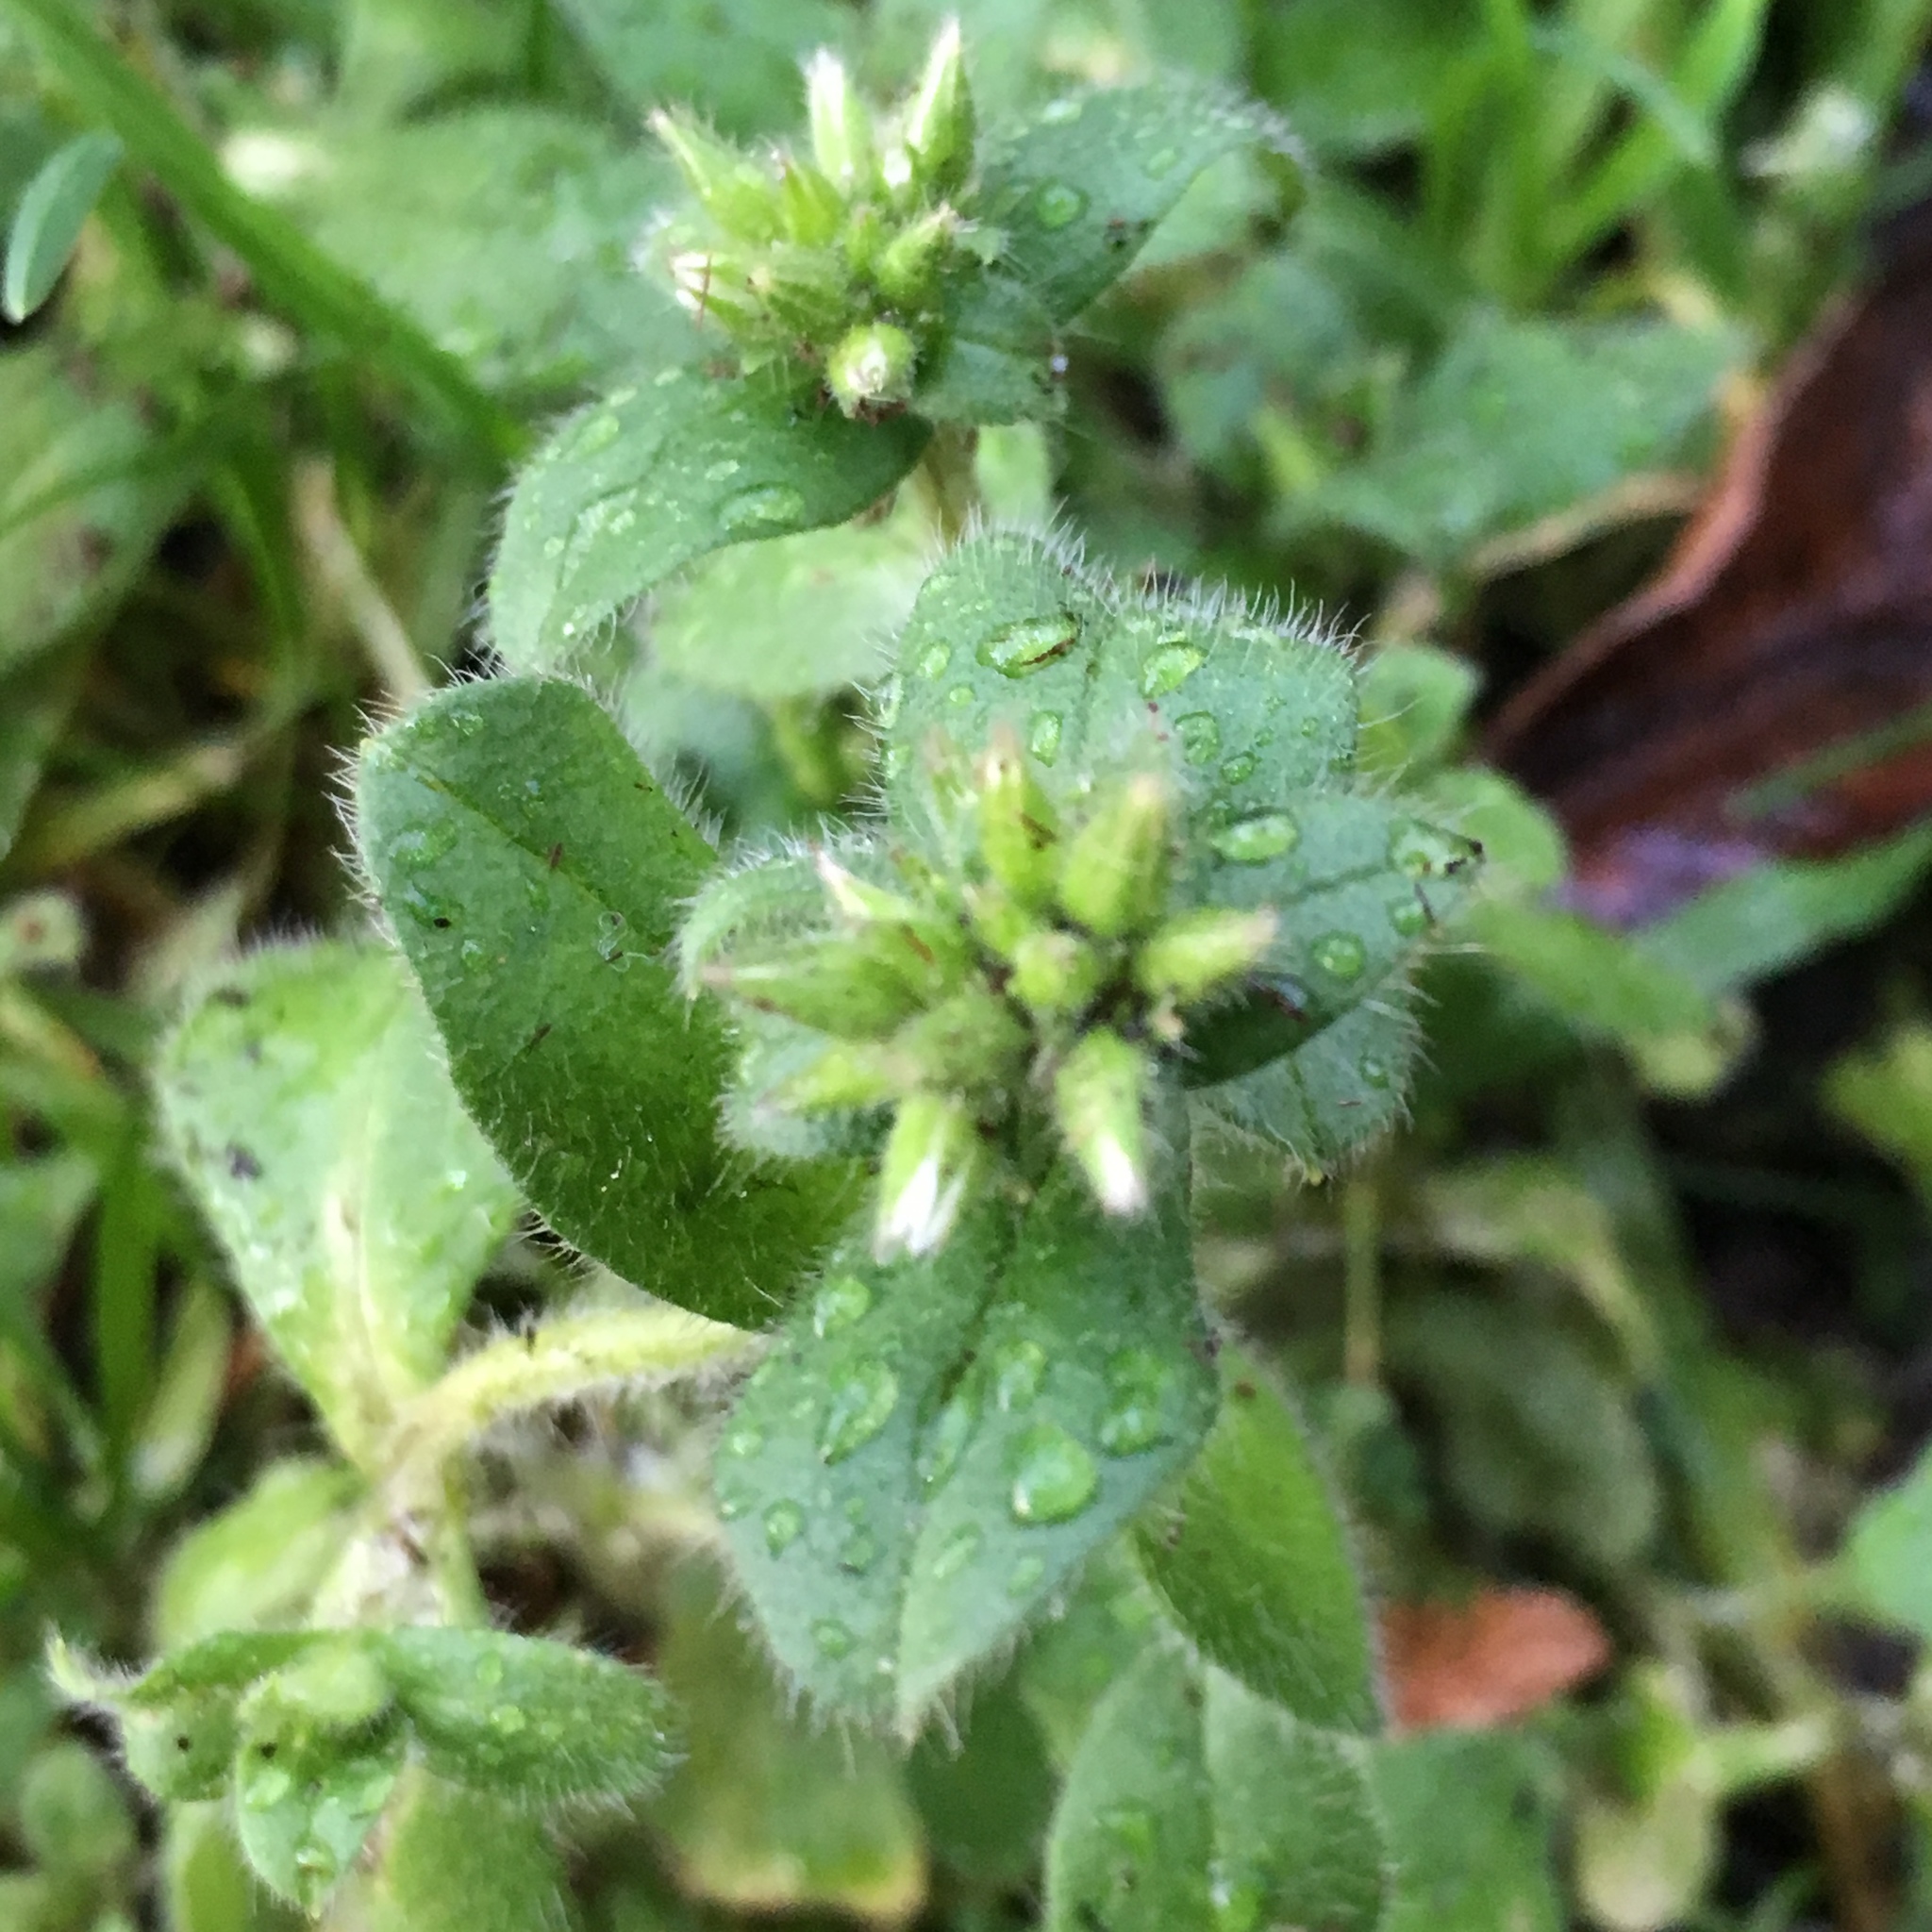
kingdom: Plantae
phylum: Tracheophyta
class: Magnoliopsida
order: Caryophyllales
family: Caryophyllaceae
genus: Cerastium
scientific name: Cerastium glomeratum
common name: Sticky chickweed
